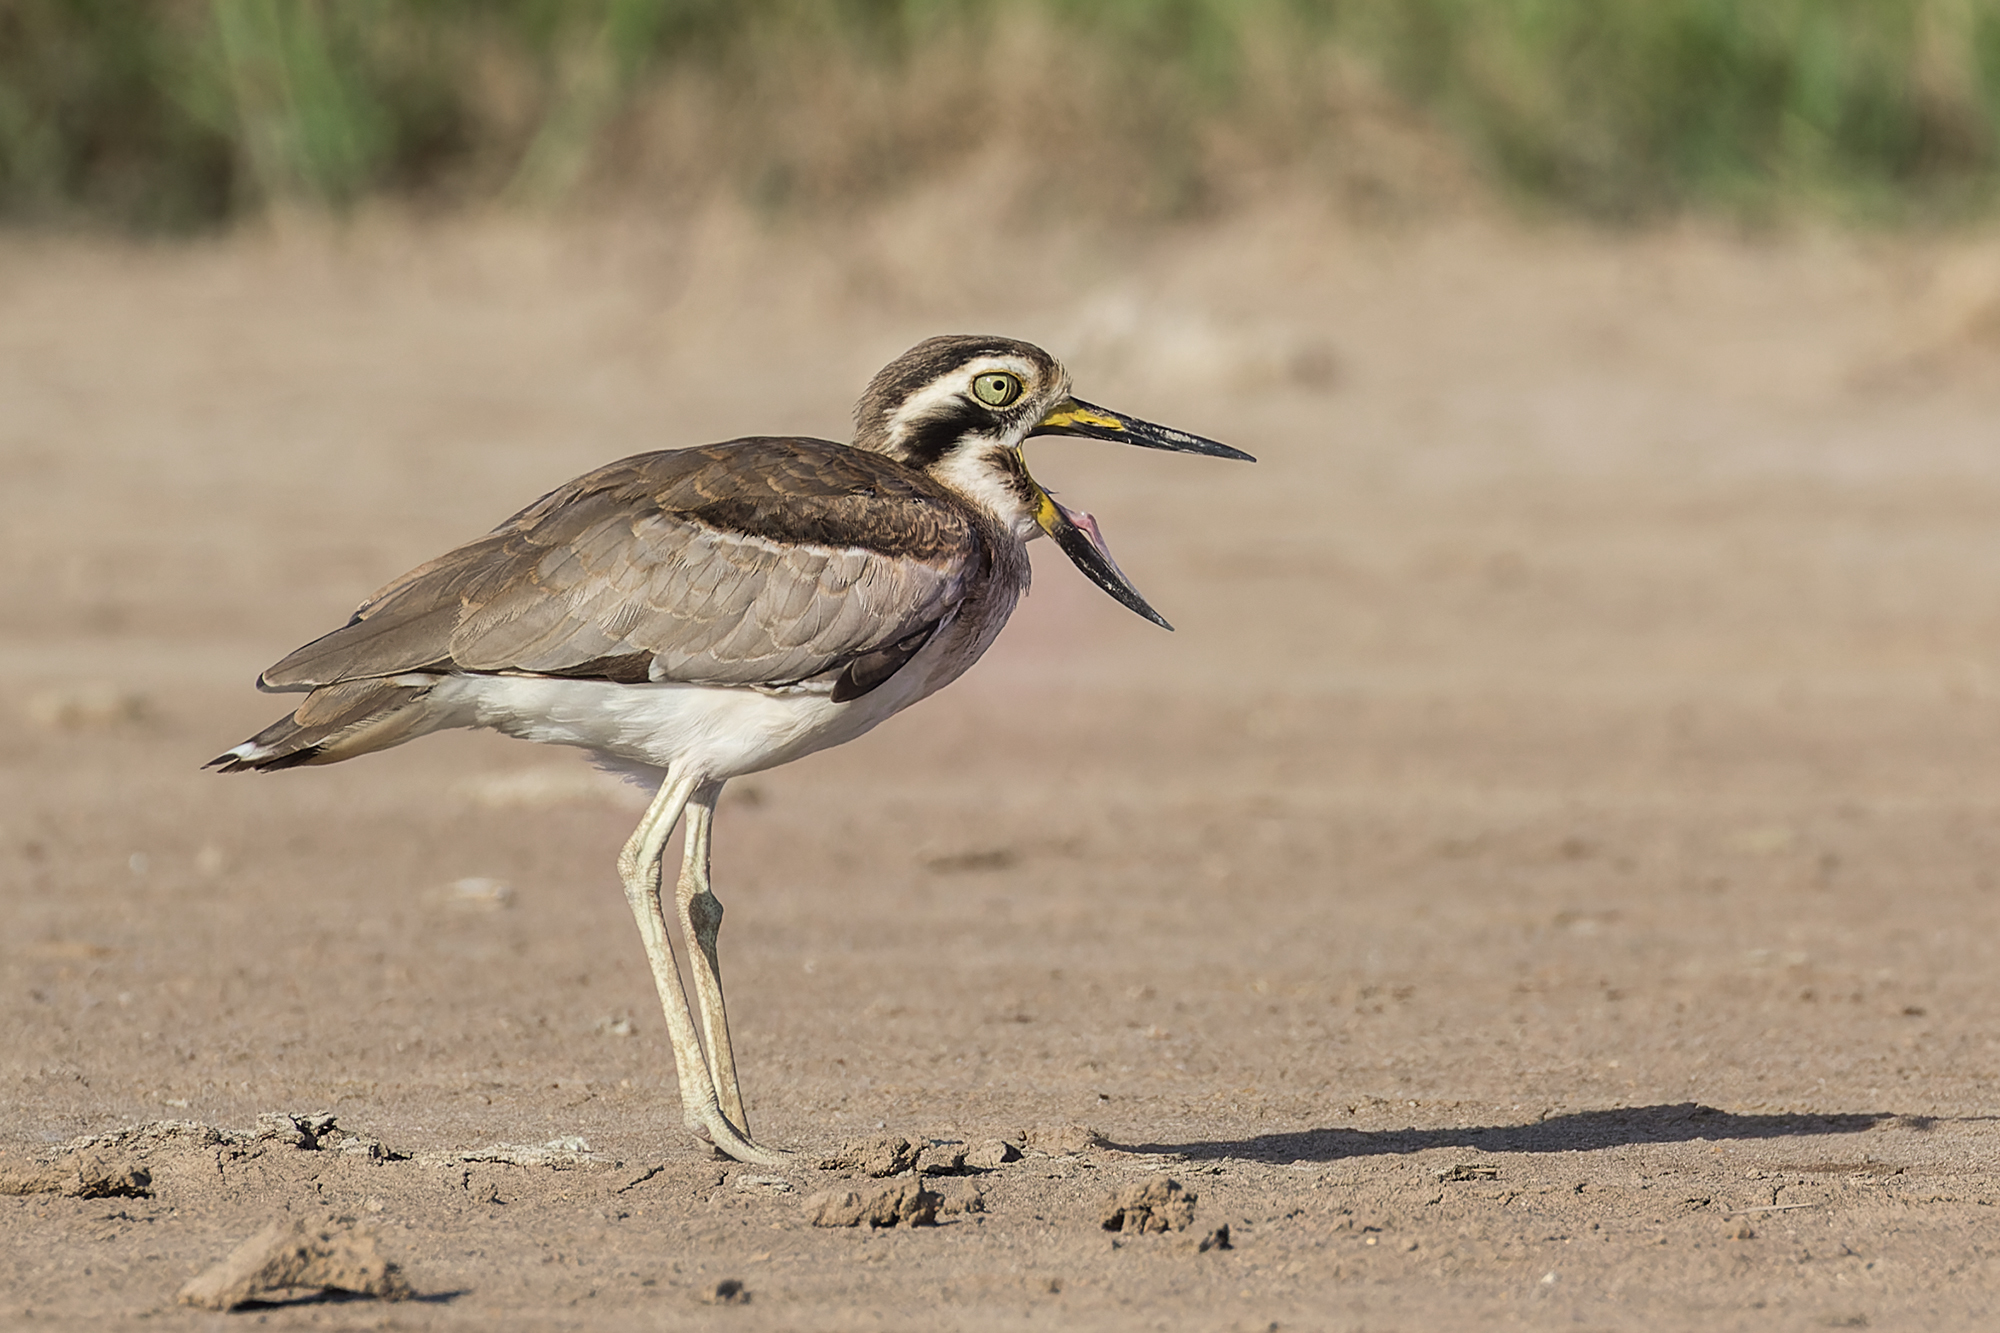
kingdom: Animalia
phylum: Chordata
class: Aves
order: Charadriiformes
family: Burhinidae
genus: Esacus
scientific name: Esacus recurvirostris
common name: Great stone-curlew
